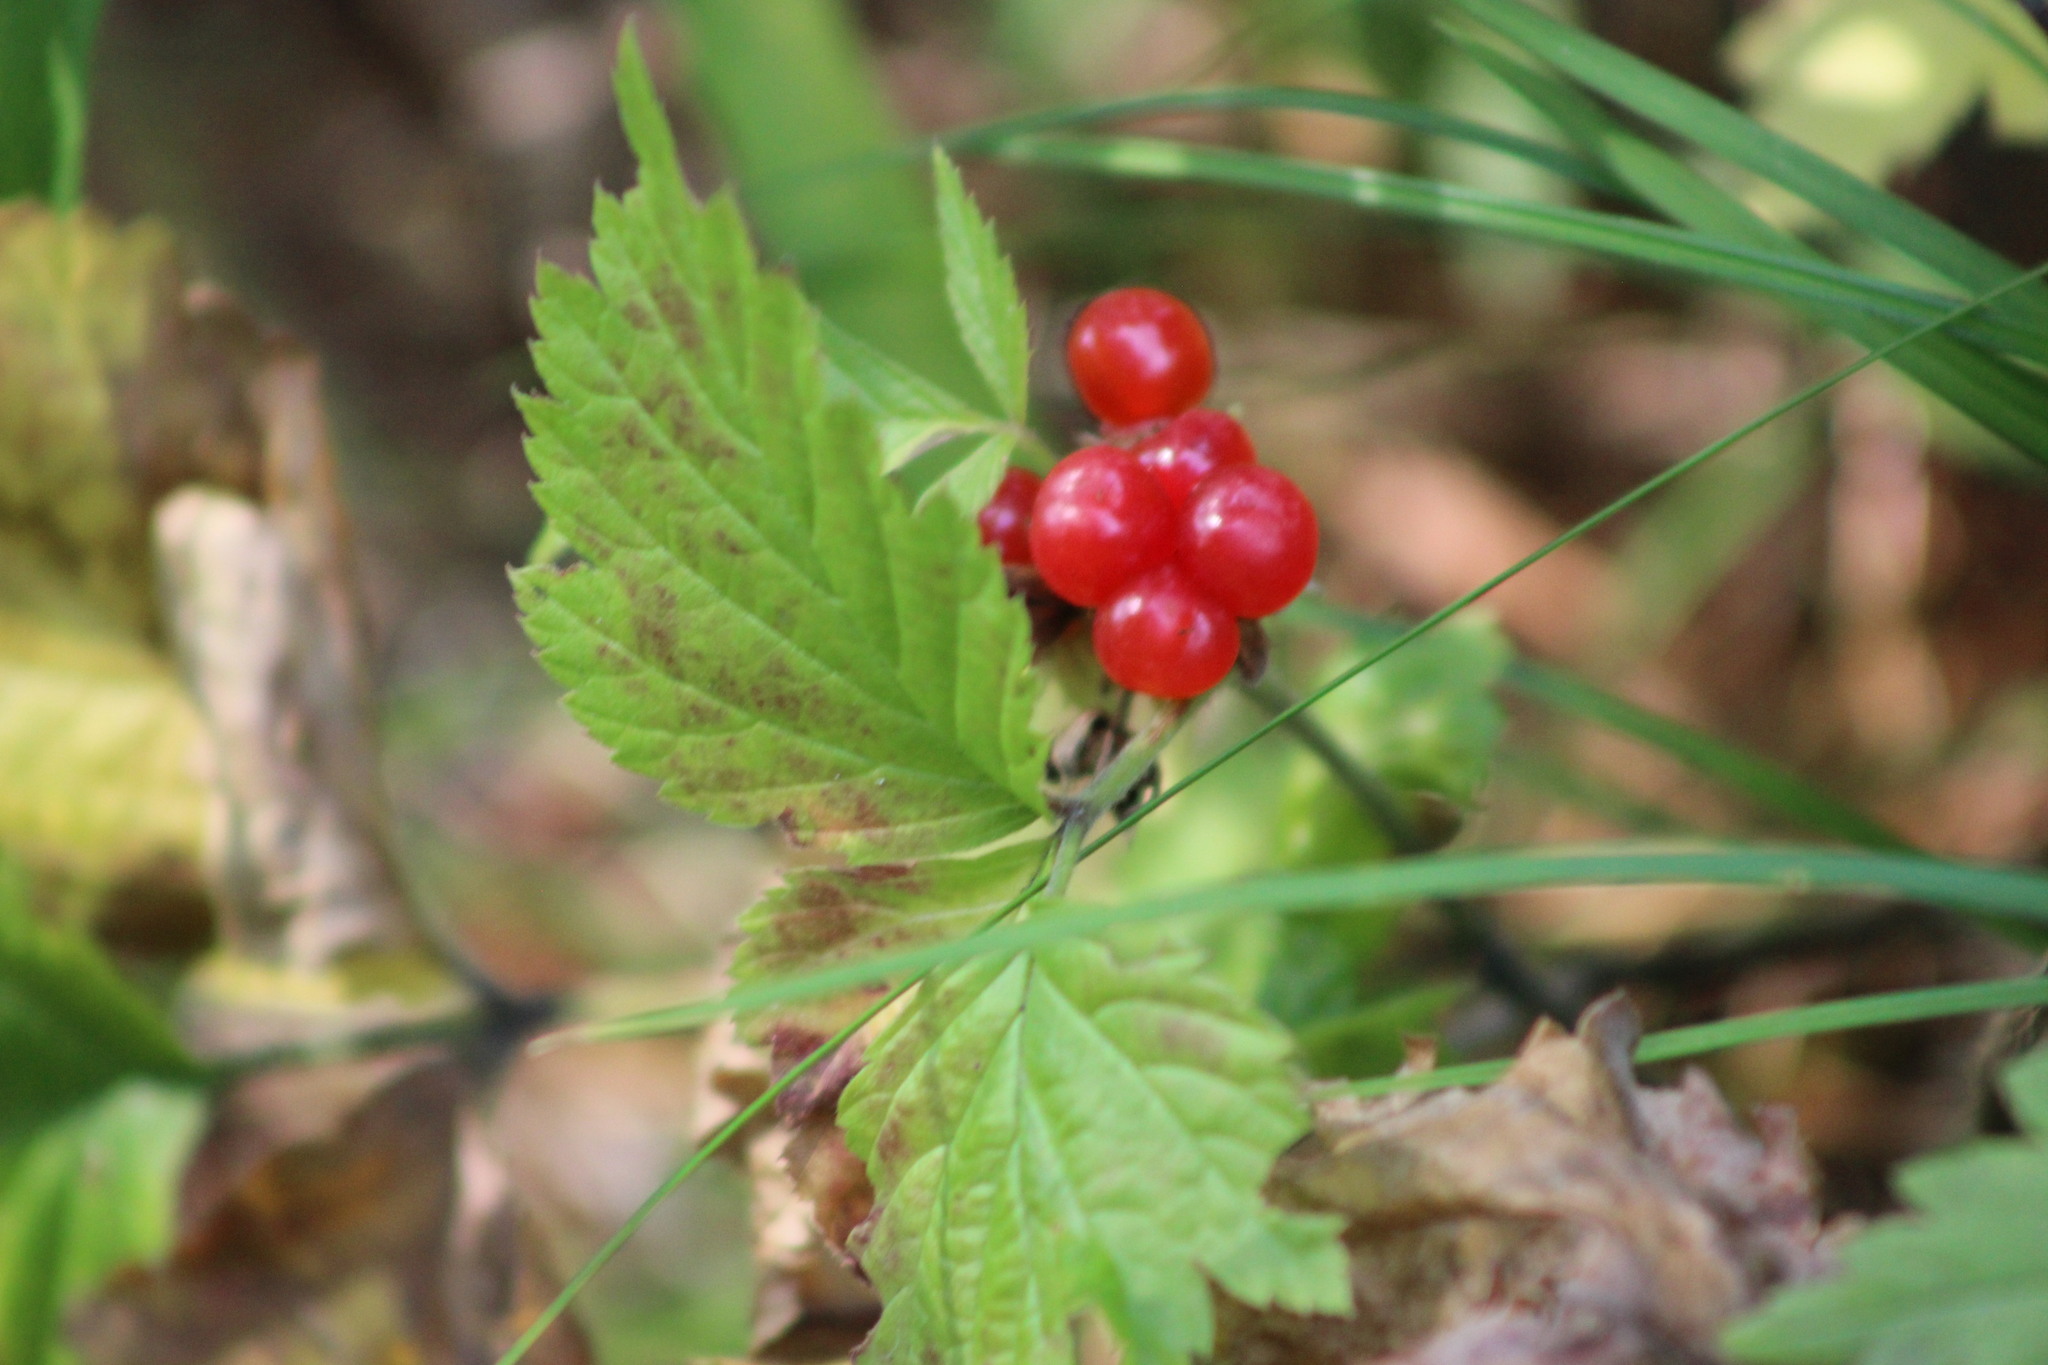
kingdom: Plantae
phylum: Tracheophyta
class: Magnoliopsida
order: Rosales
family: Rosaceae
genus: Rubus
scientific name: Rubus saxatilis
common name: Stone bramble
